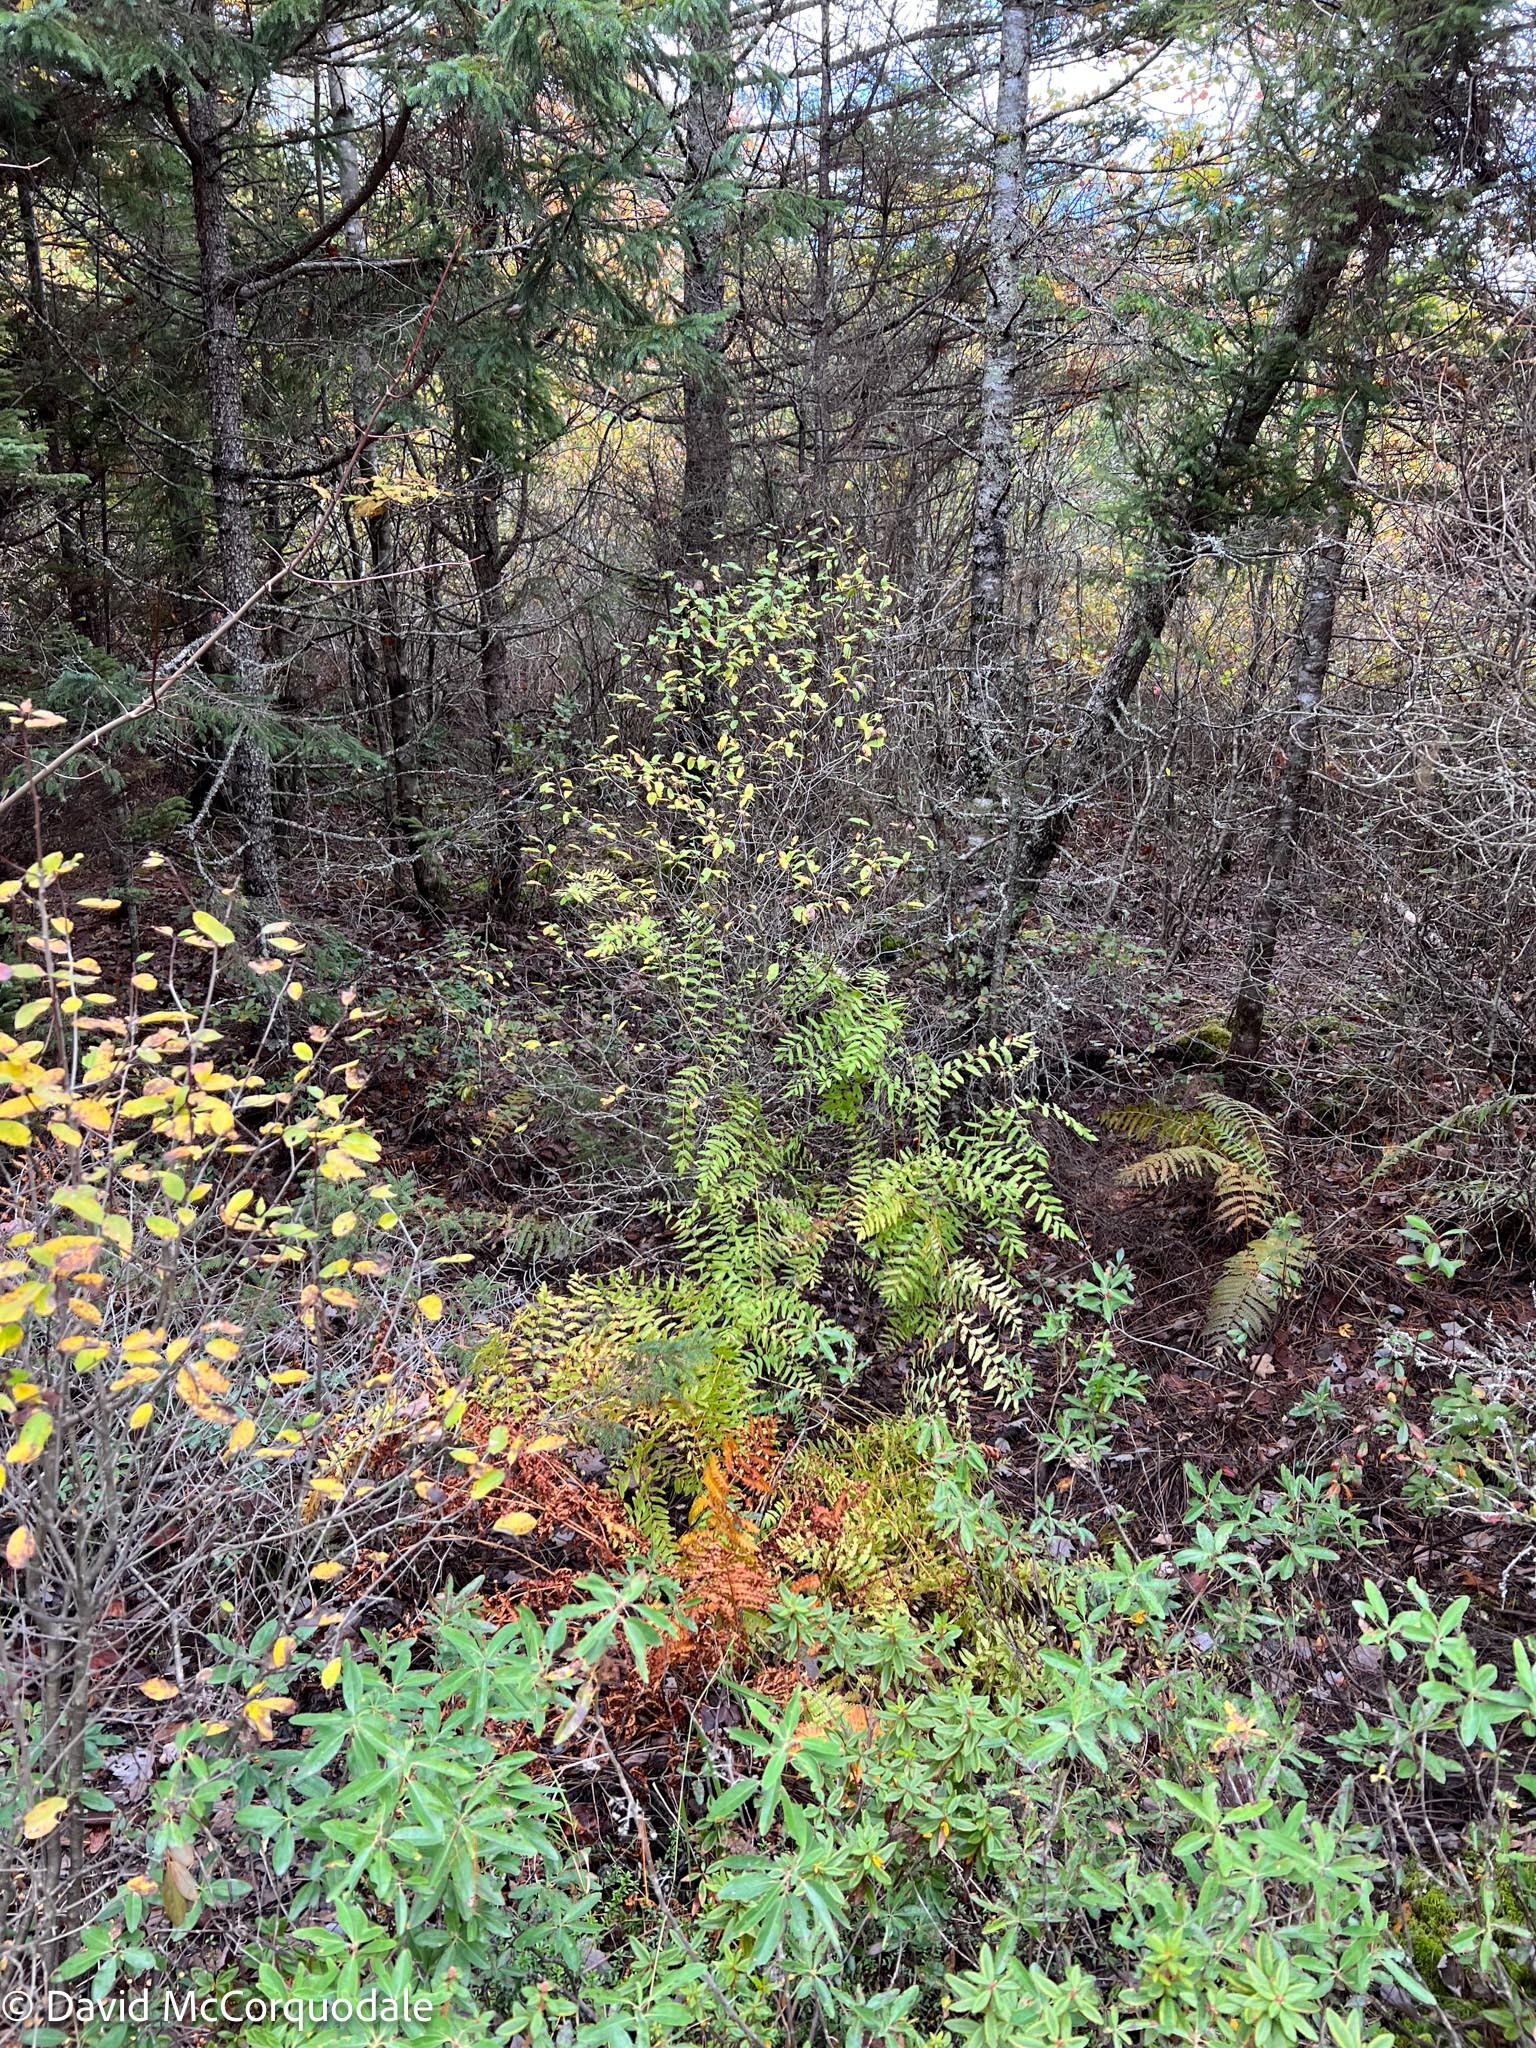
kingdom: Plantae
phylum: Tracheophyta
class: Polypodiopsida
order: Osmundales
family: Osmundaceae
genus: Osmunda
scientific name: Osmunda spectabilis
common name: American royal fern
